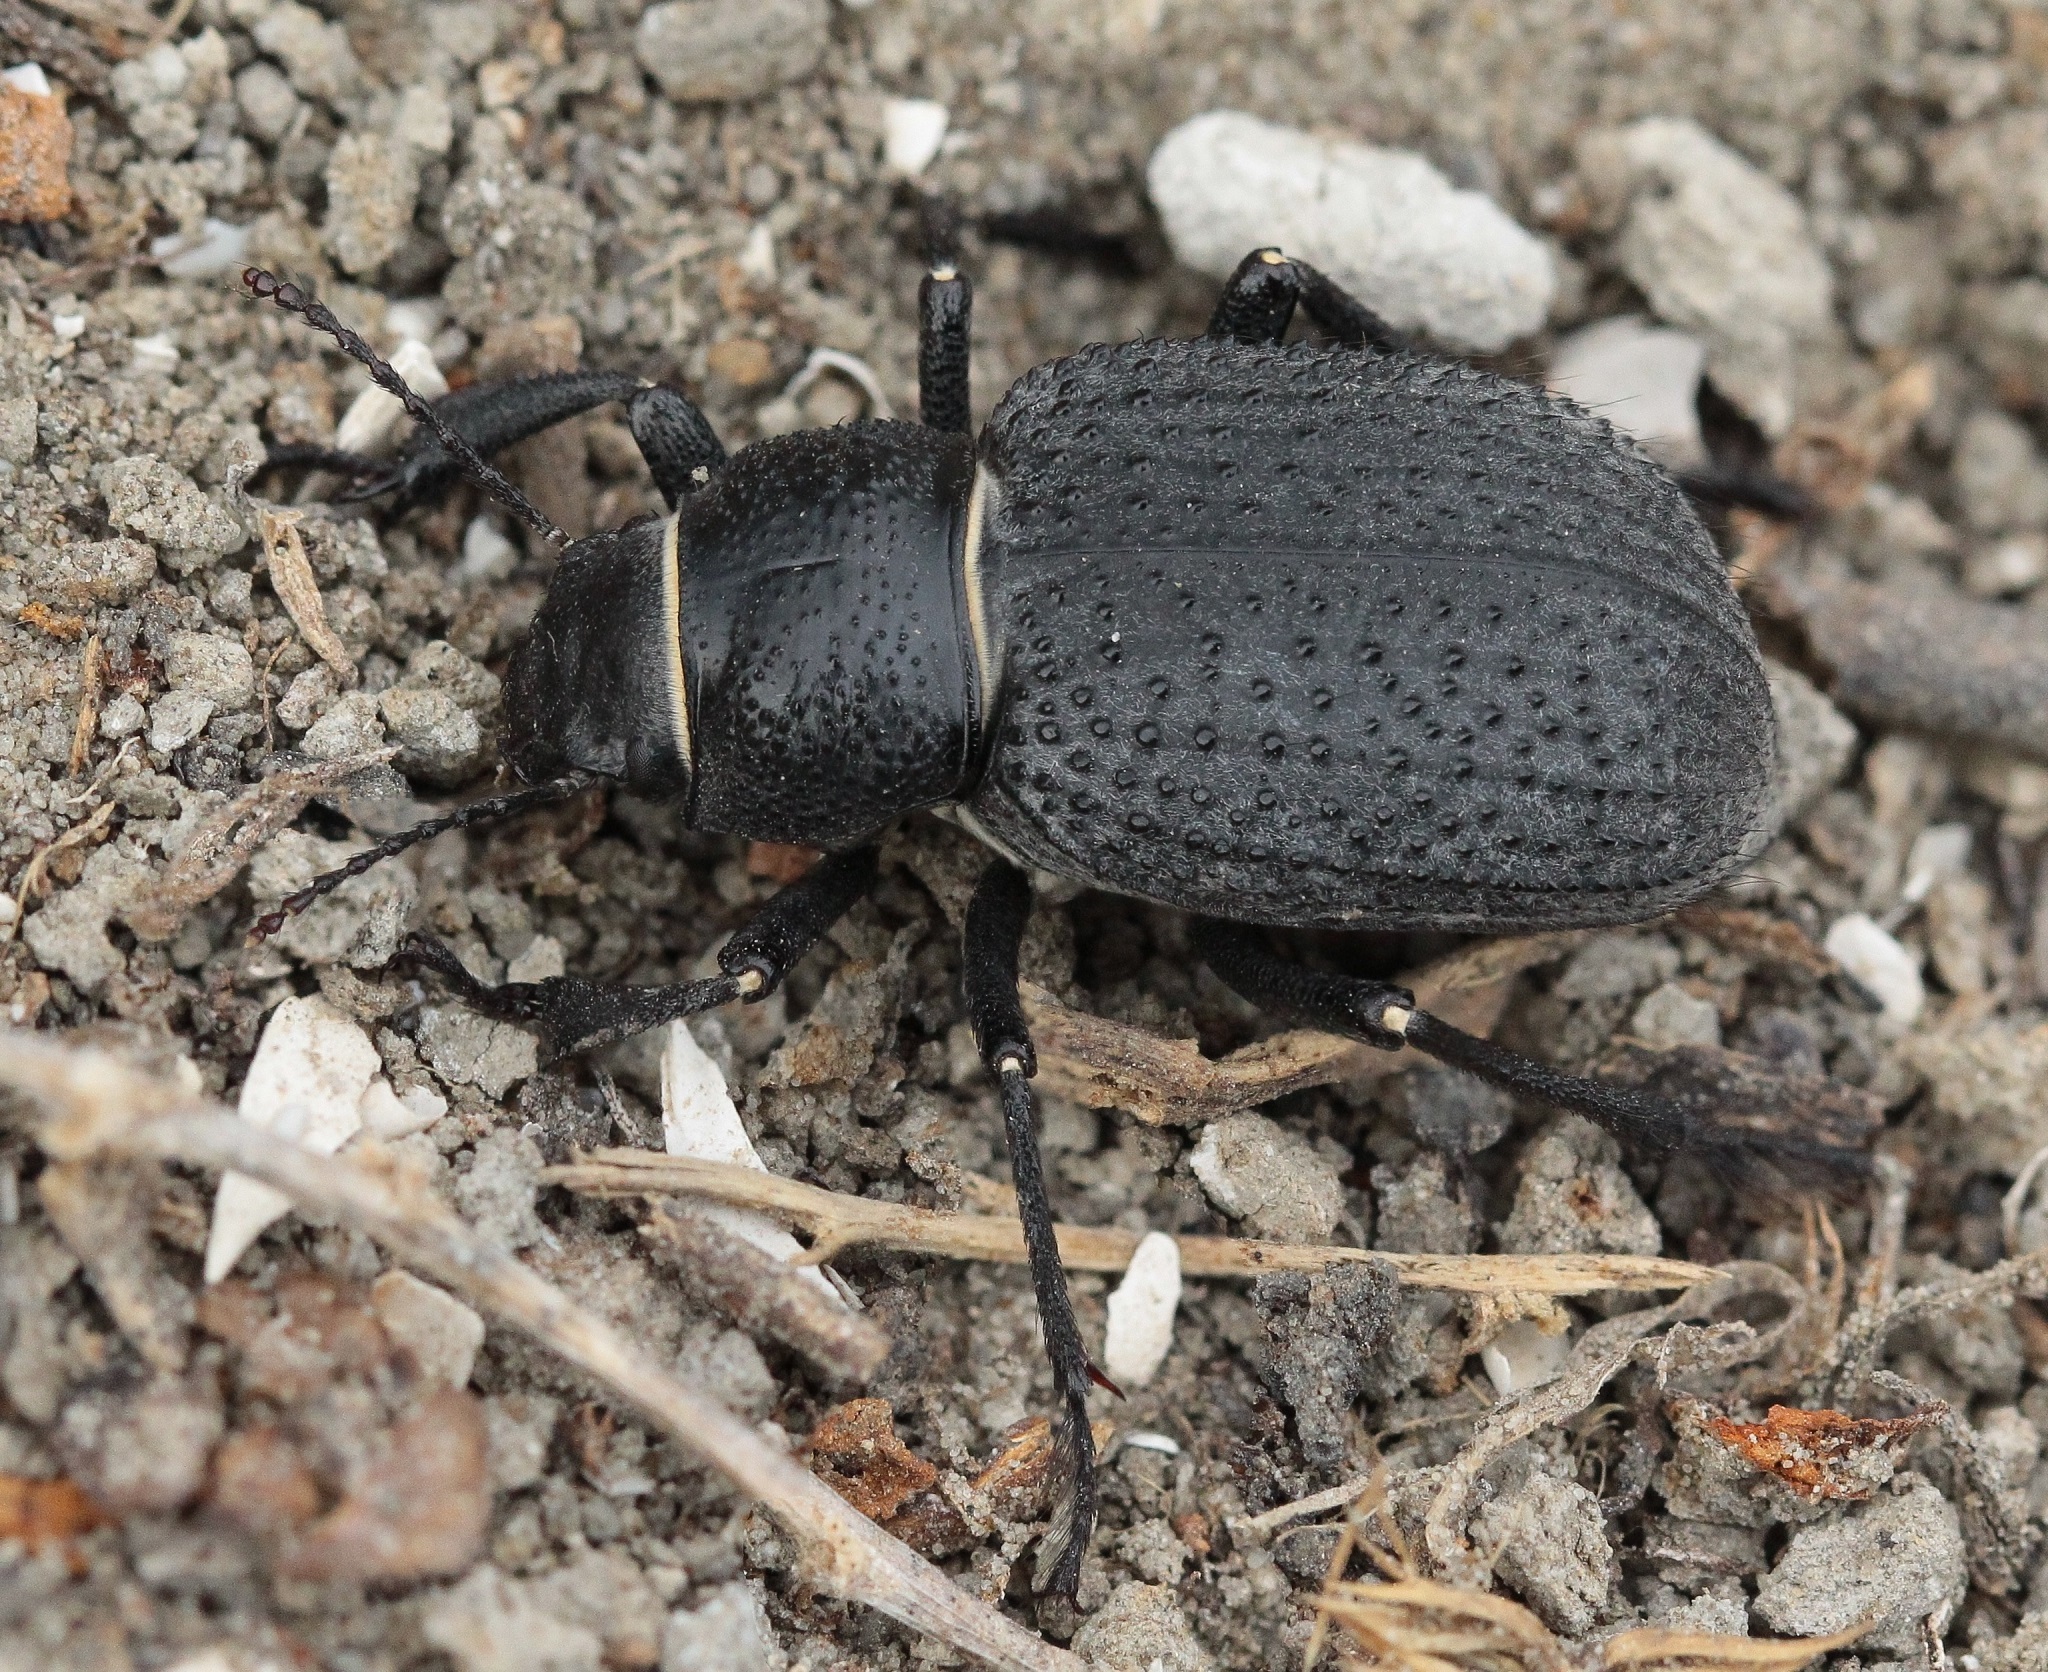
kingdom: Animalia
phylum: Arthropoda
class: Insecta
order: Coleoptera
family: Tenebrionidae
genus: Trigonoscelis
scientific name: Trigonoscelis muricata
